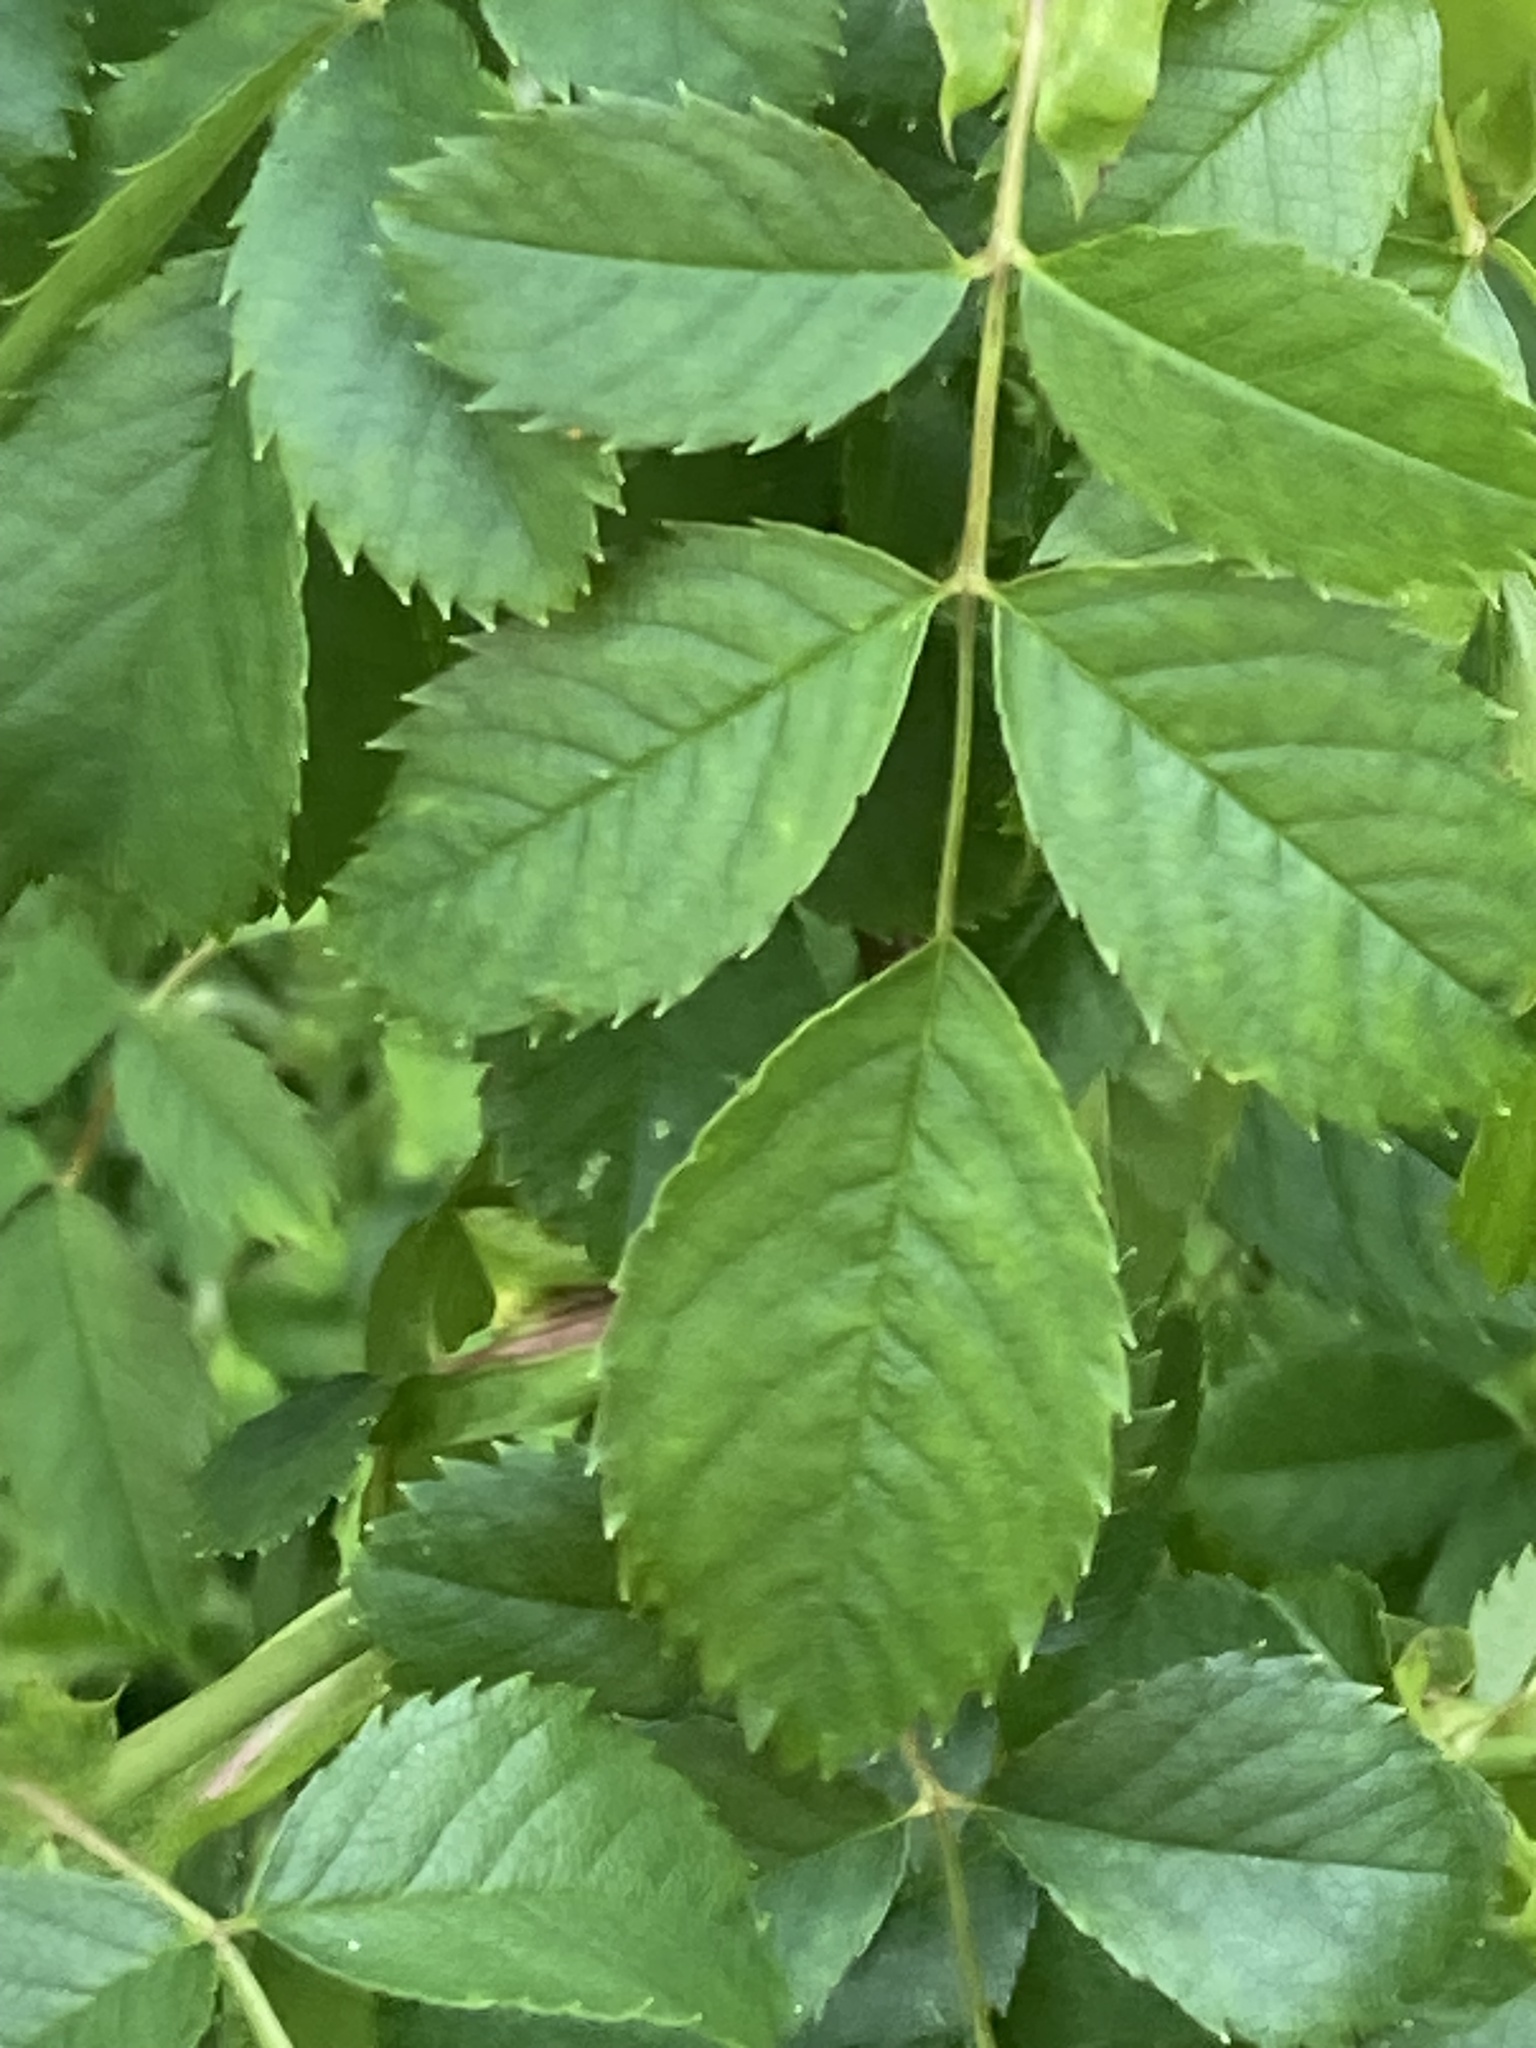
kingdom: Plantae
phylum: Tracheophyta
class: Magnoliopsida
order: Rosales
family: Rosaceae
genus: Rosa
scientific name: Rosa canina
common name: Dog rose
